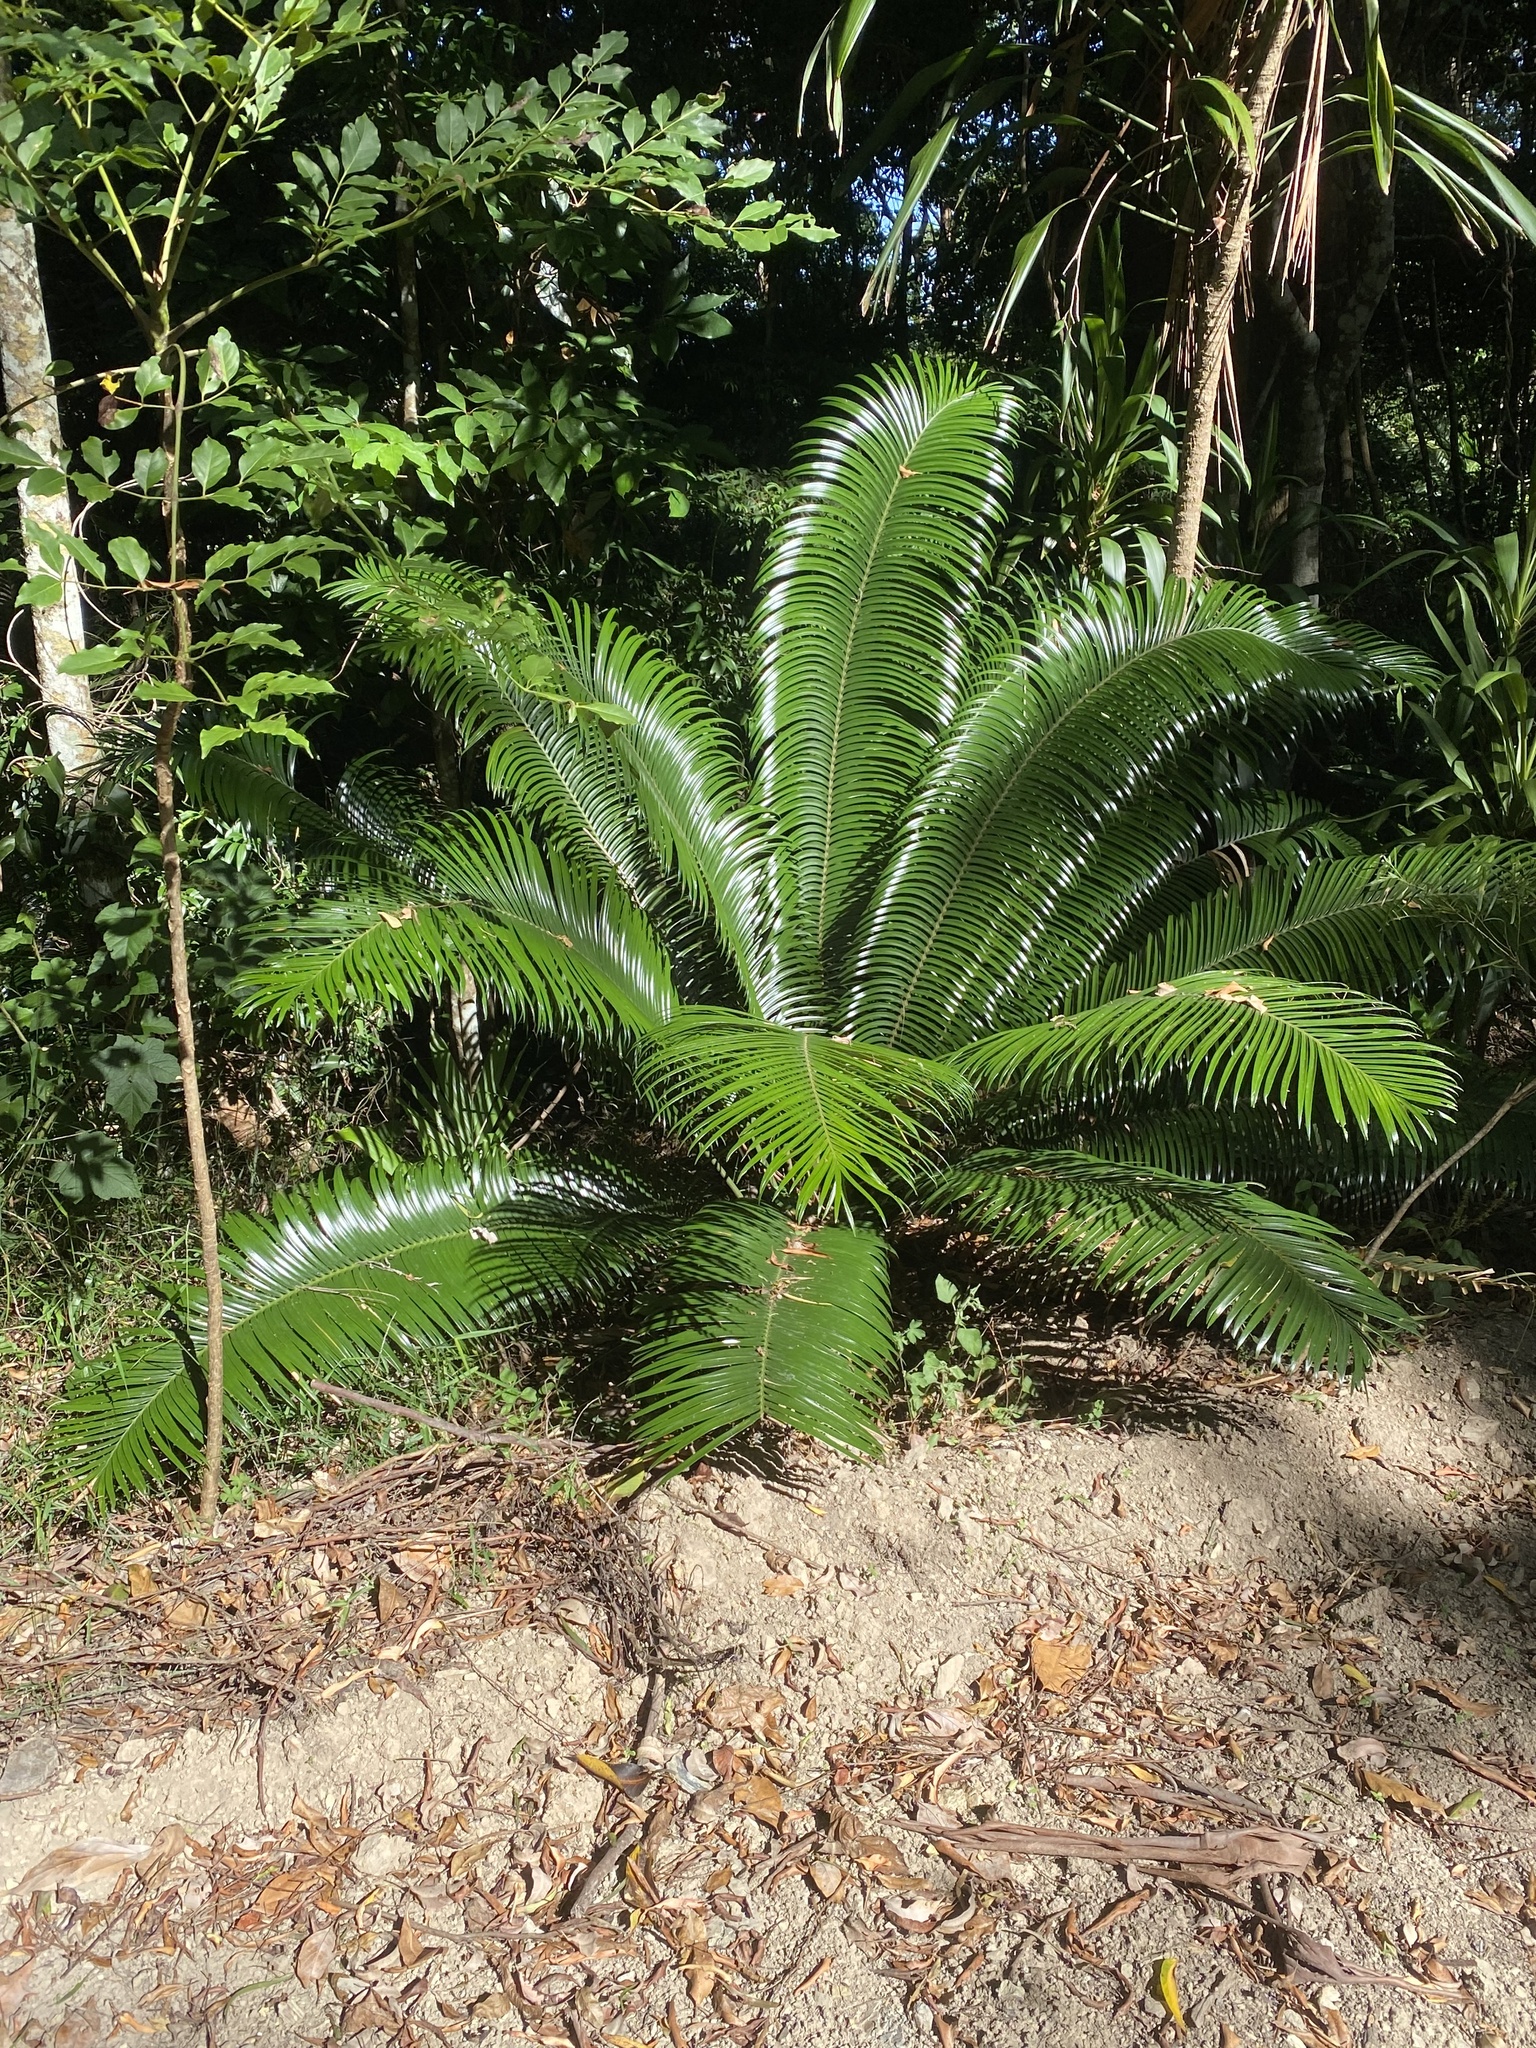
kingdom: Plantae
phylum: Tracheophyta
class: Cycadopsida
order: Cycadales
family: Zamiaceae
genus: Lepidozamia
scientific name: Lepidozamia peroffskyana
